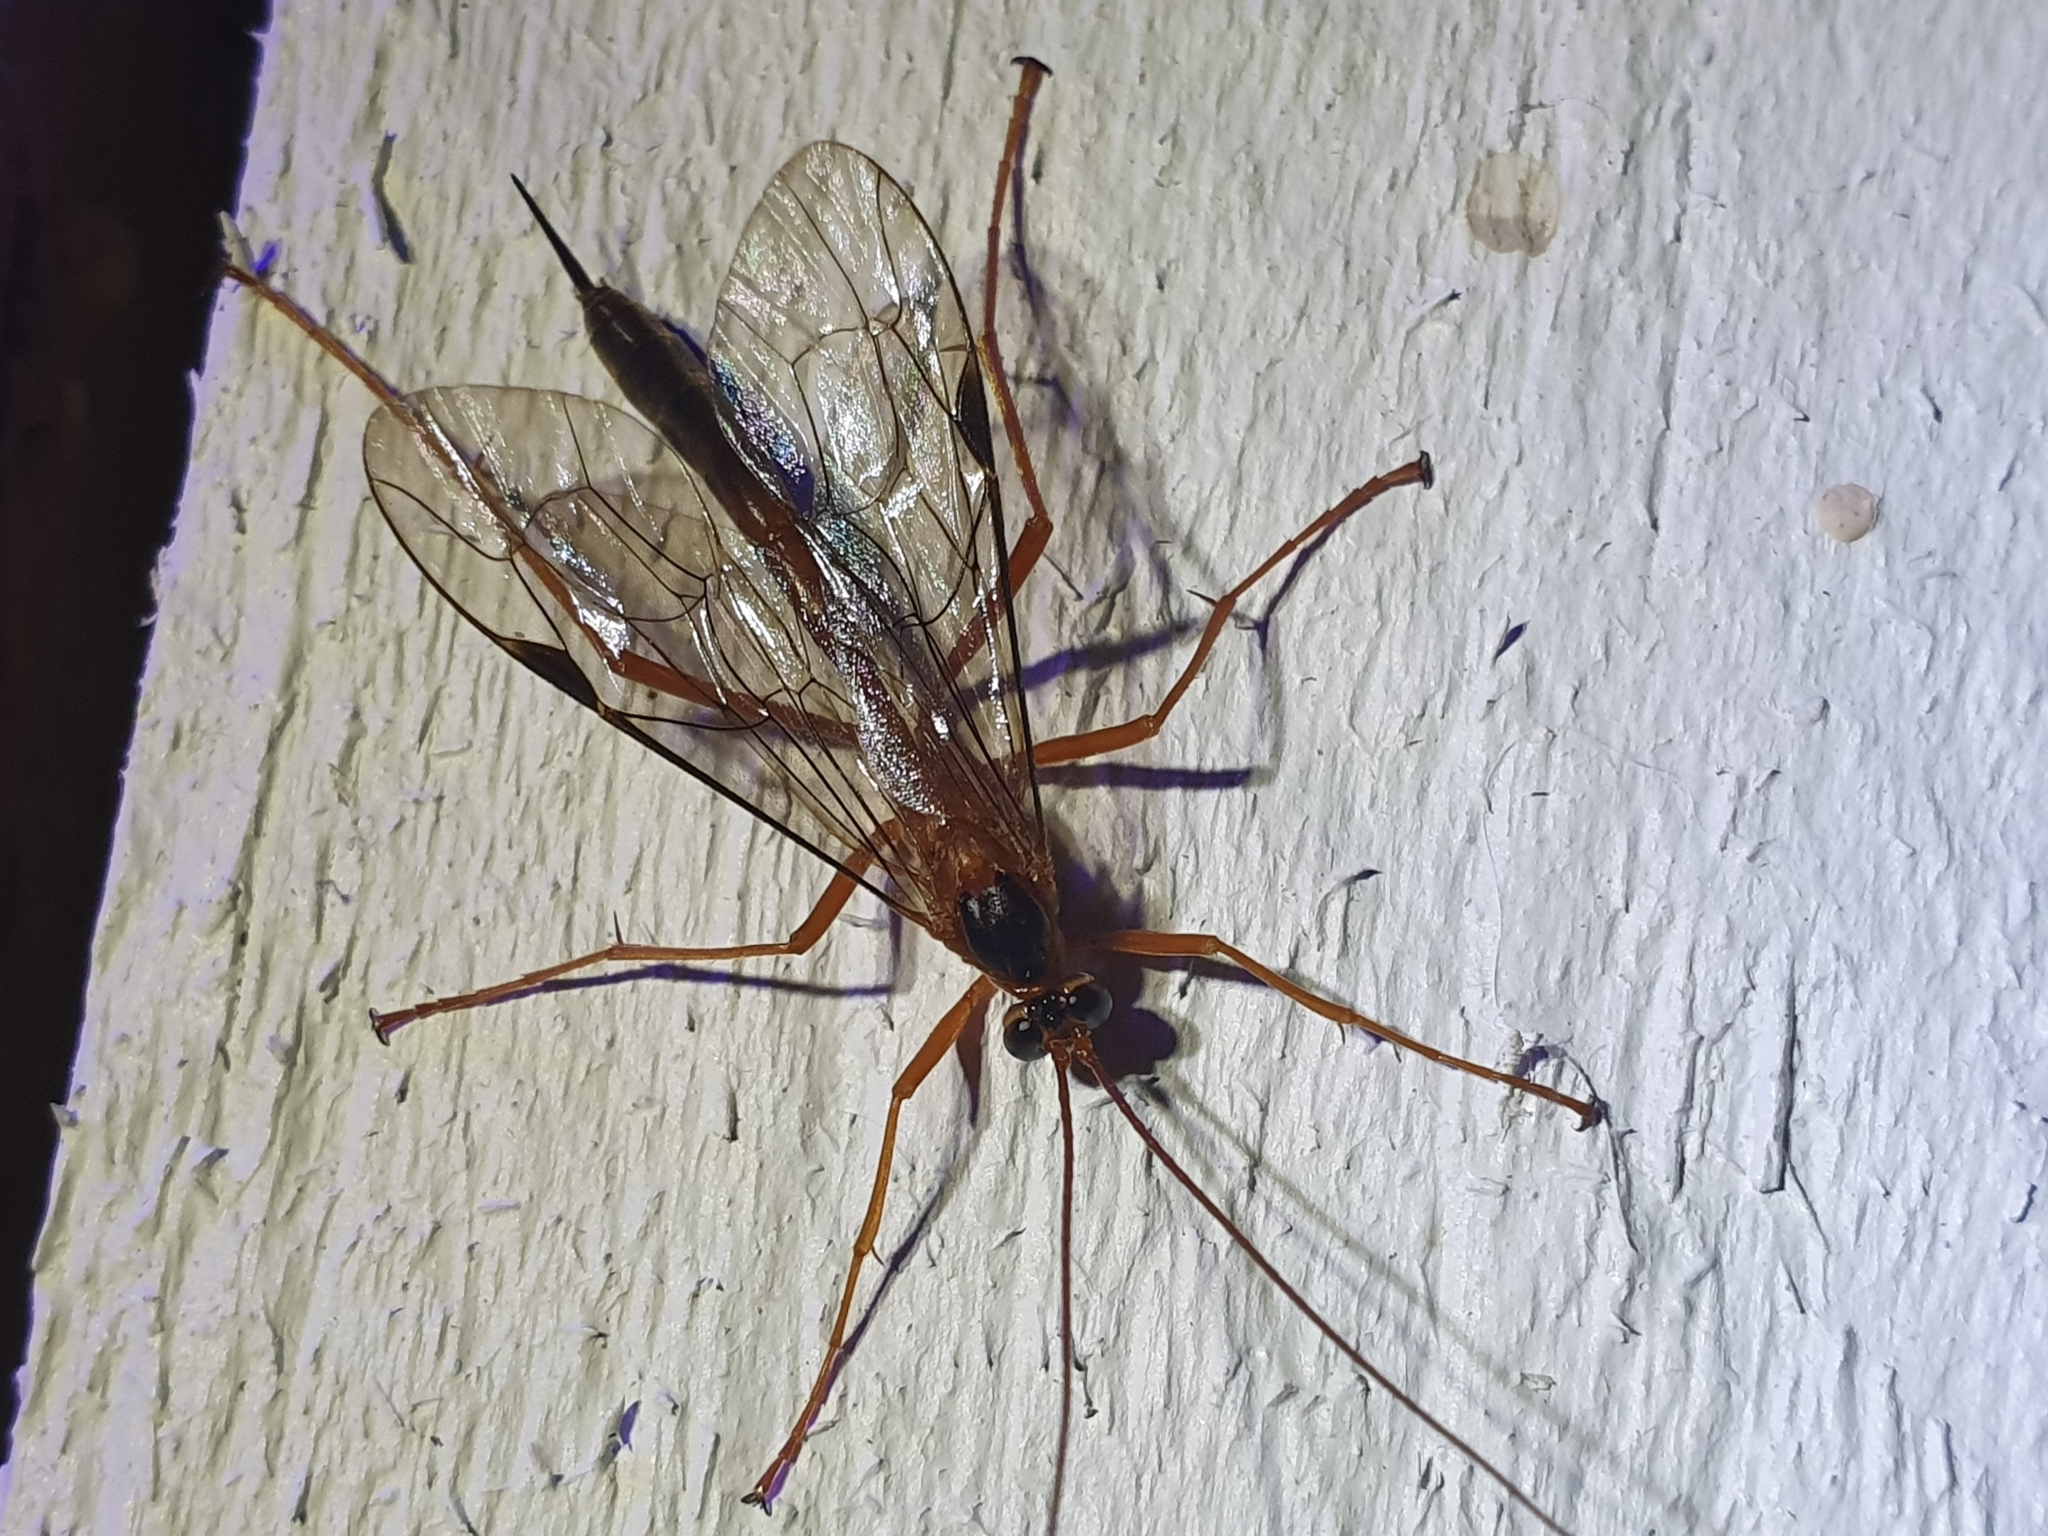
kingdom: Animalia
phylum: Arthropoda
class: Insecta
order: Hymenoptera
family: Ichneumonidae
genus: Netelia
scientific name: Netelia ephippiata
